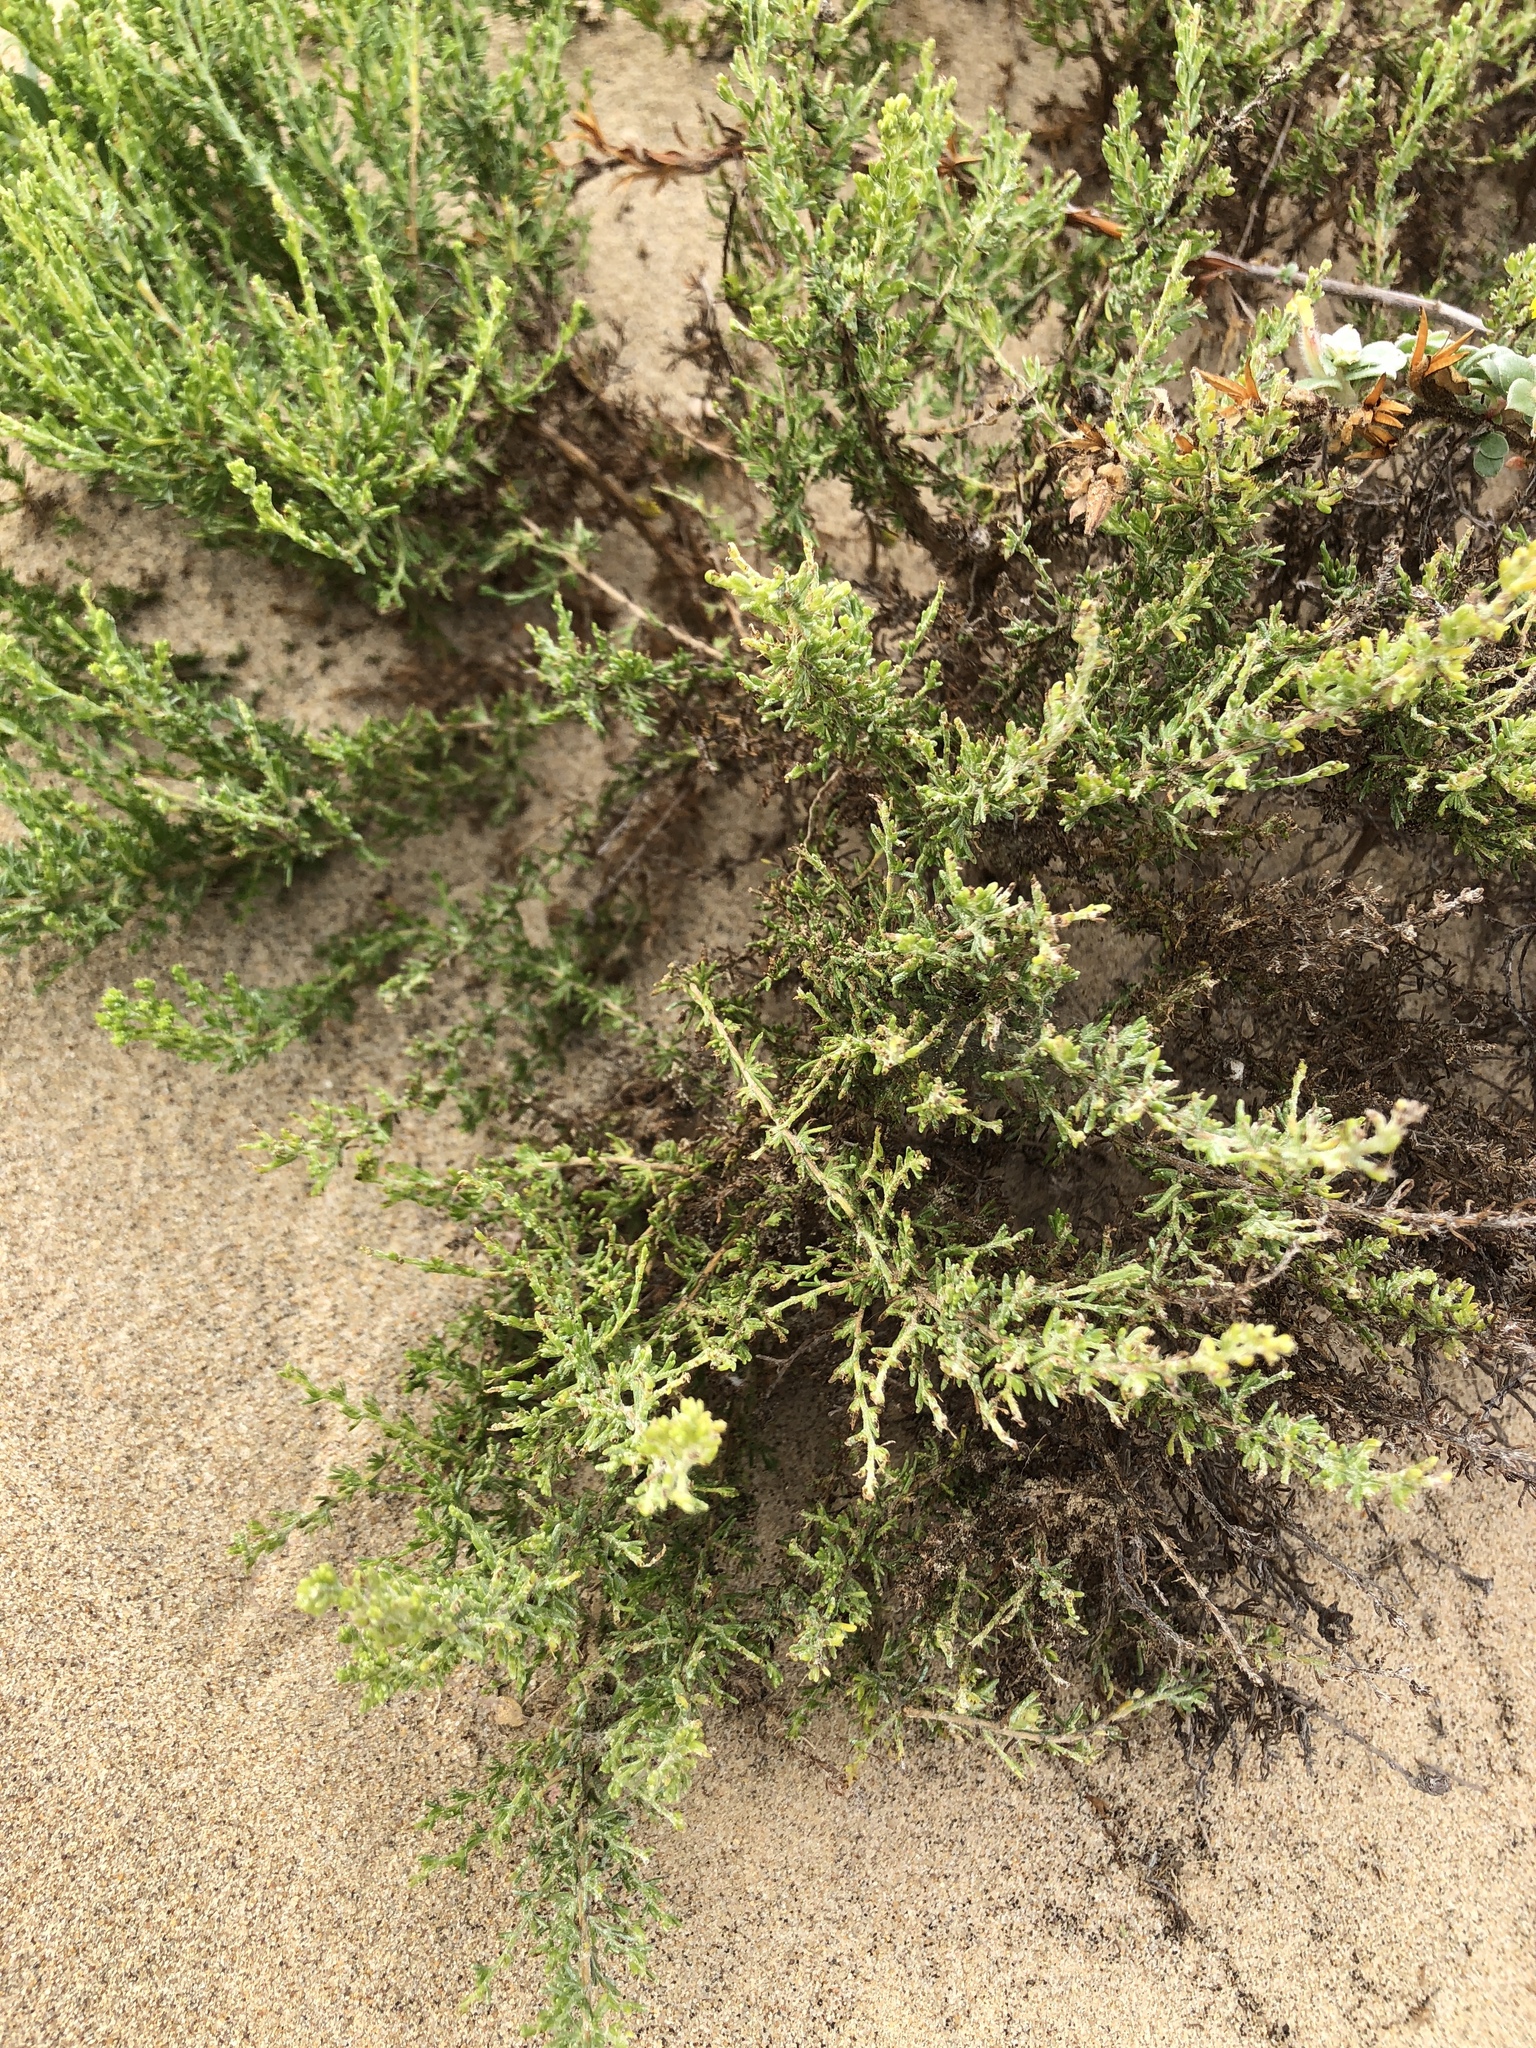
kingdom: Plantae
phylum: Tracheophyta
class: Magnoliopsida
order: Asterales
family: Asteraceae
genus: Ericameria
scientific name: Ericameria ericoides
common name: California goldenbush
